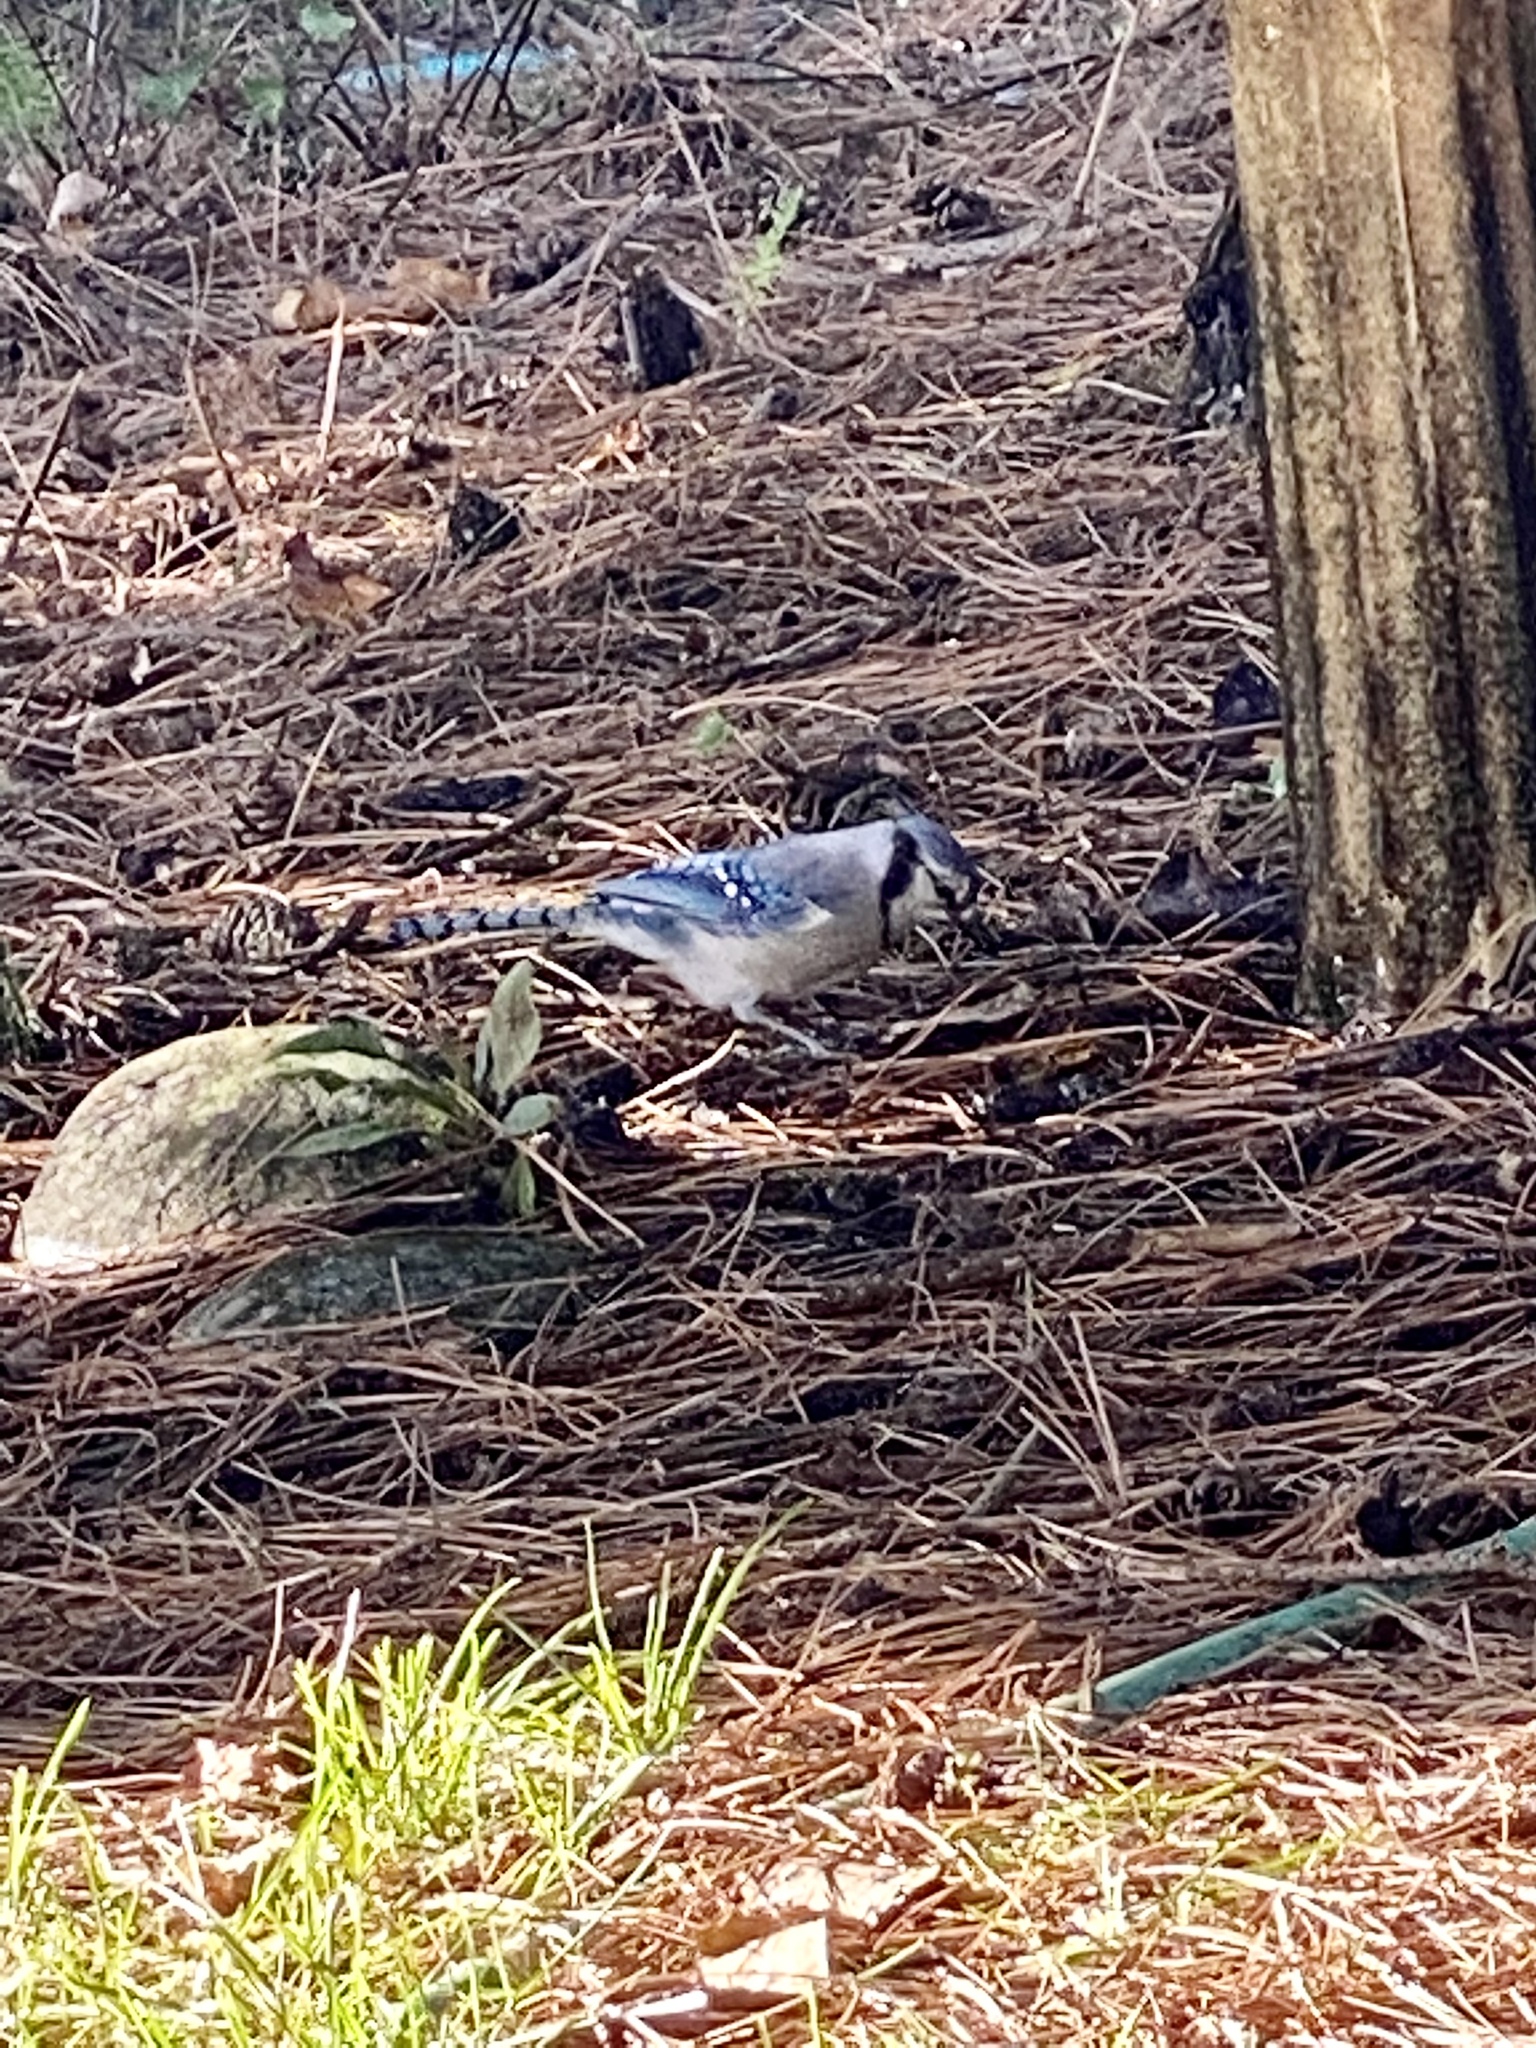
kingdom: Animalia
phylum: Chordata
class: Aves
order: Passeriformes
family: Corvidae
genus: Cyanocitta
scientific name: Cyanocitta cristata
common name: Blue jay
